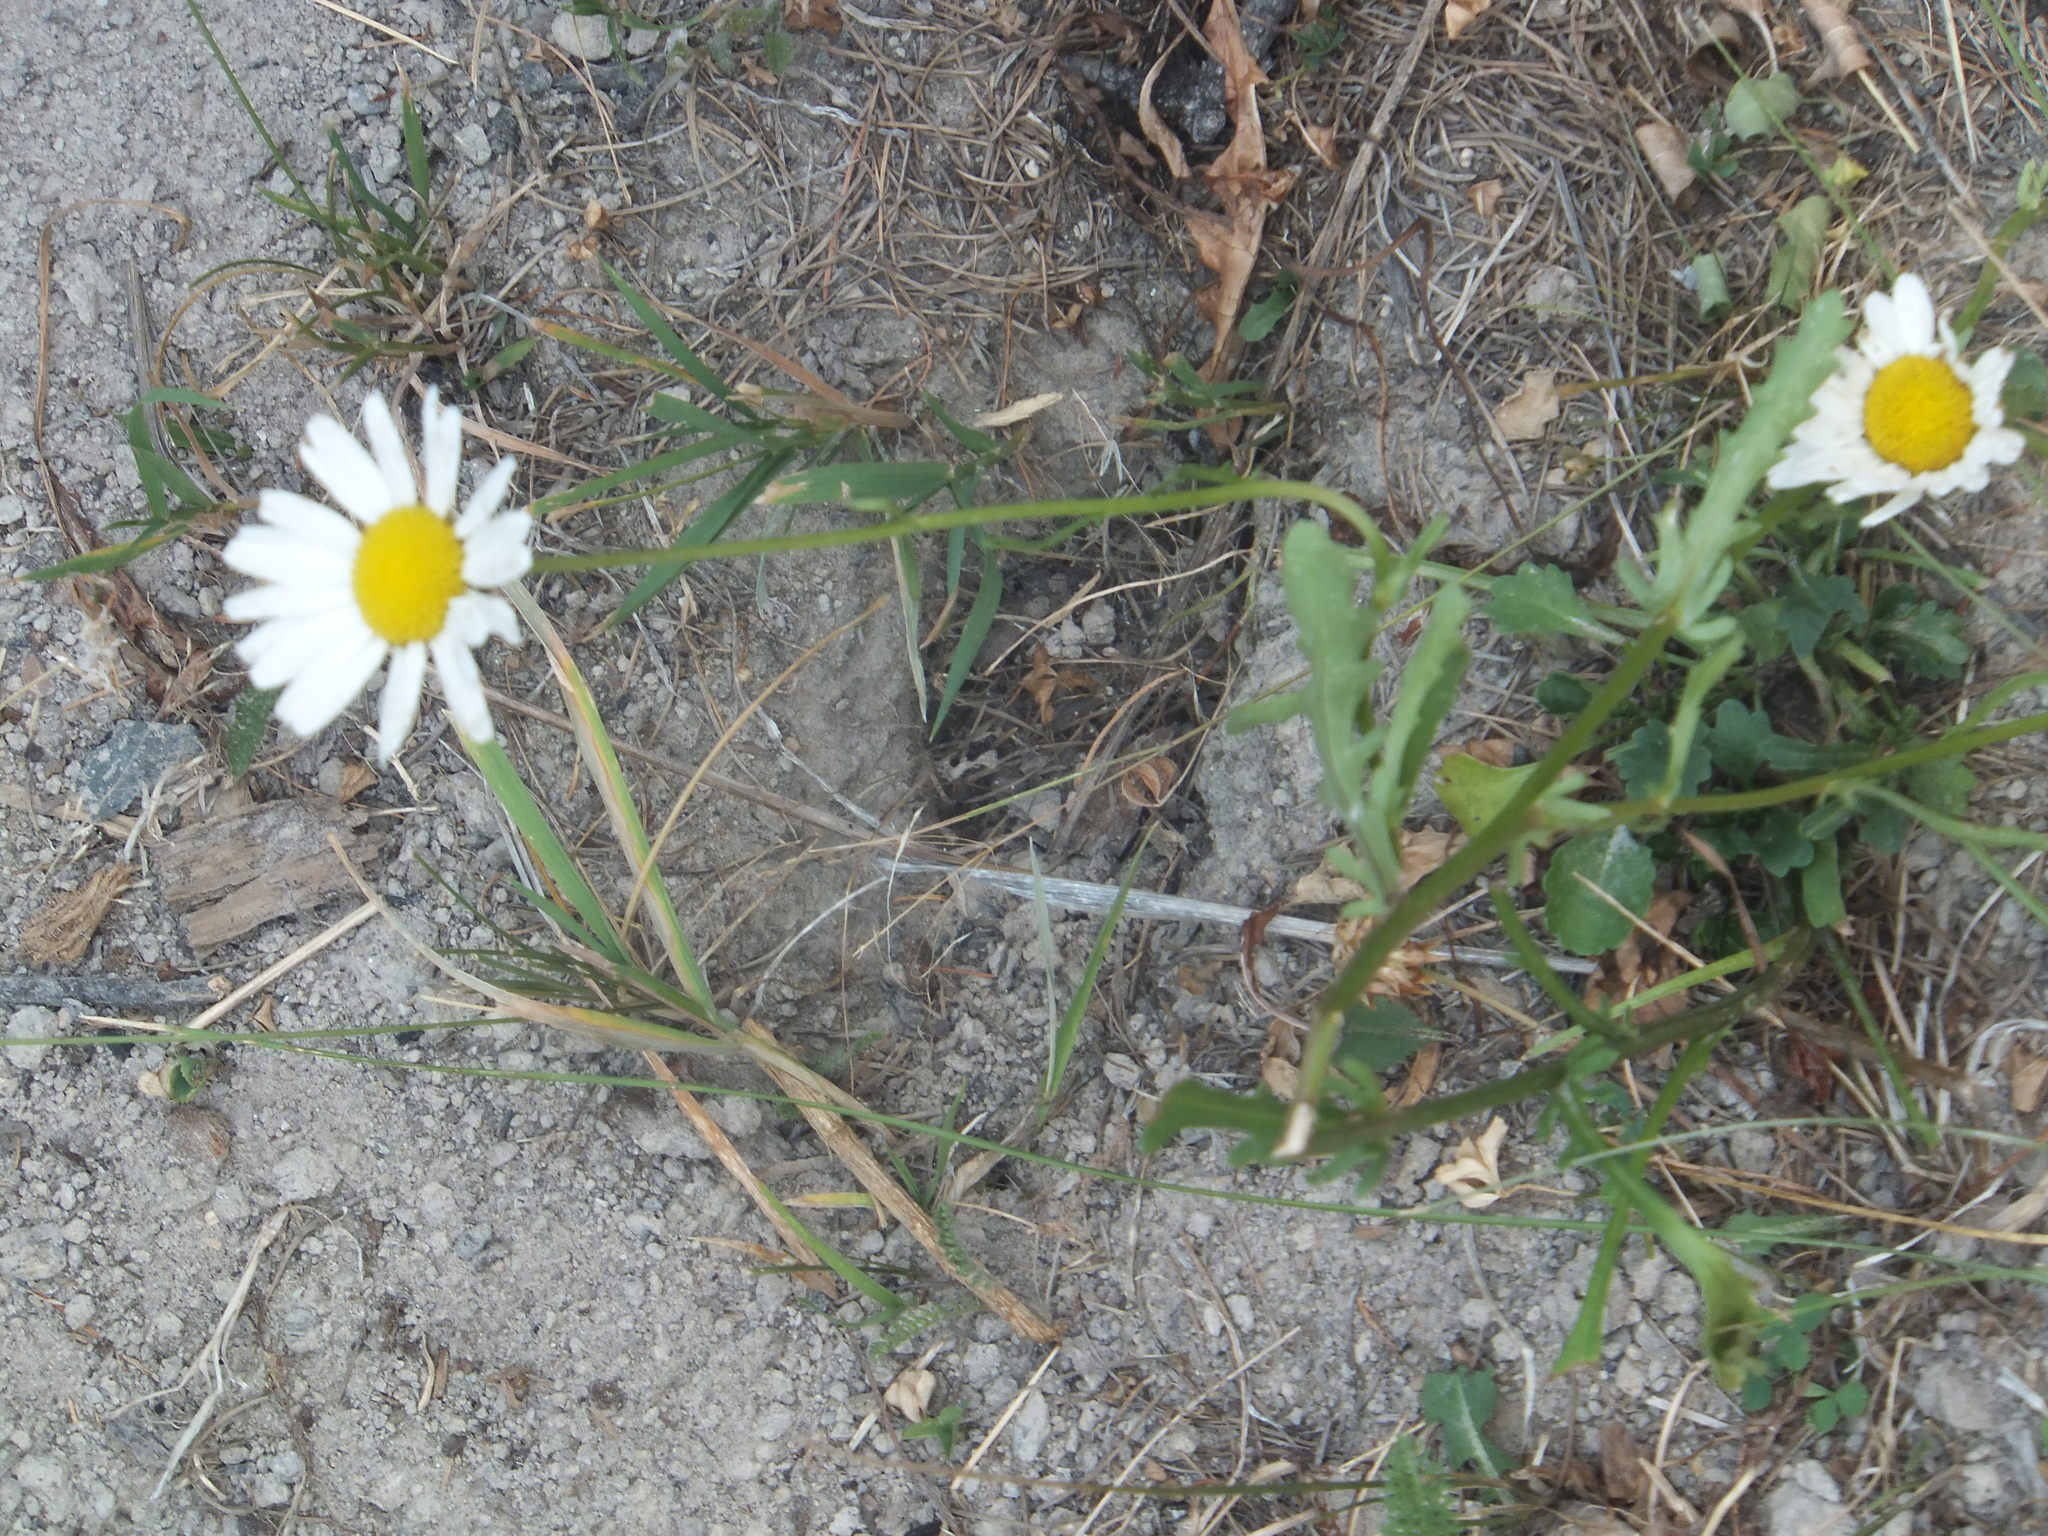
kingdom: Plantae
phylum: Tracheophyta
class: Magnoliopsida
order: Asterales
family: Asteraceae
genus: Leucanthemum
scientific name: Leucanthemum vulgare
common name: Oxeye daisy
